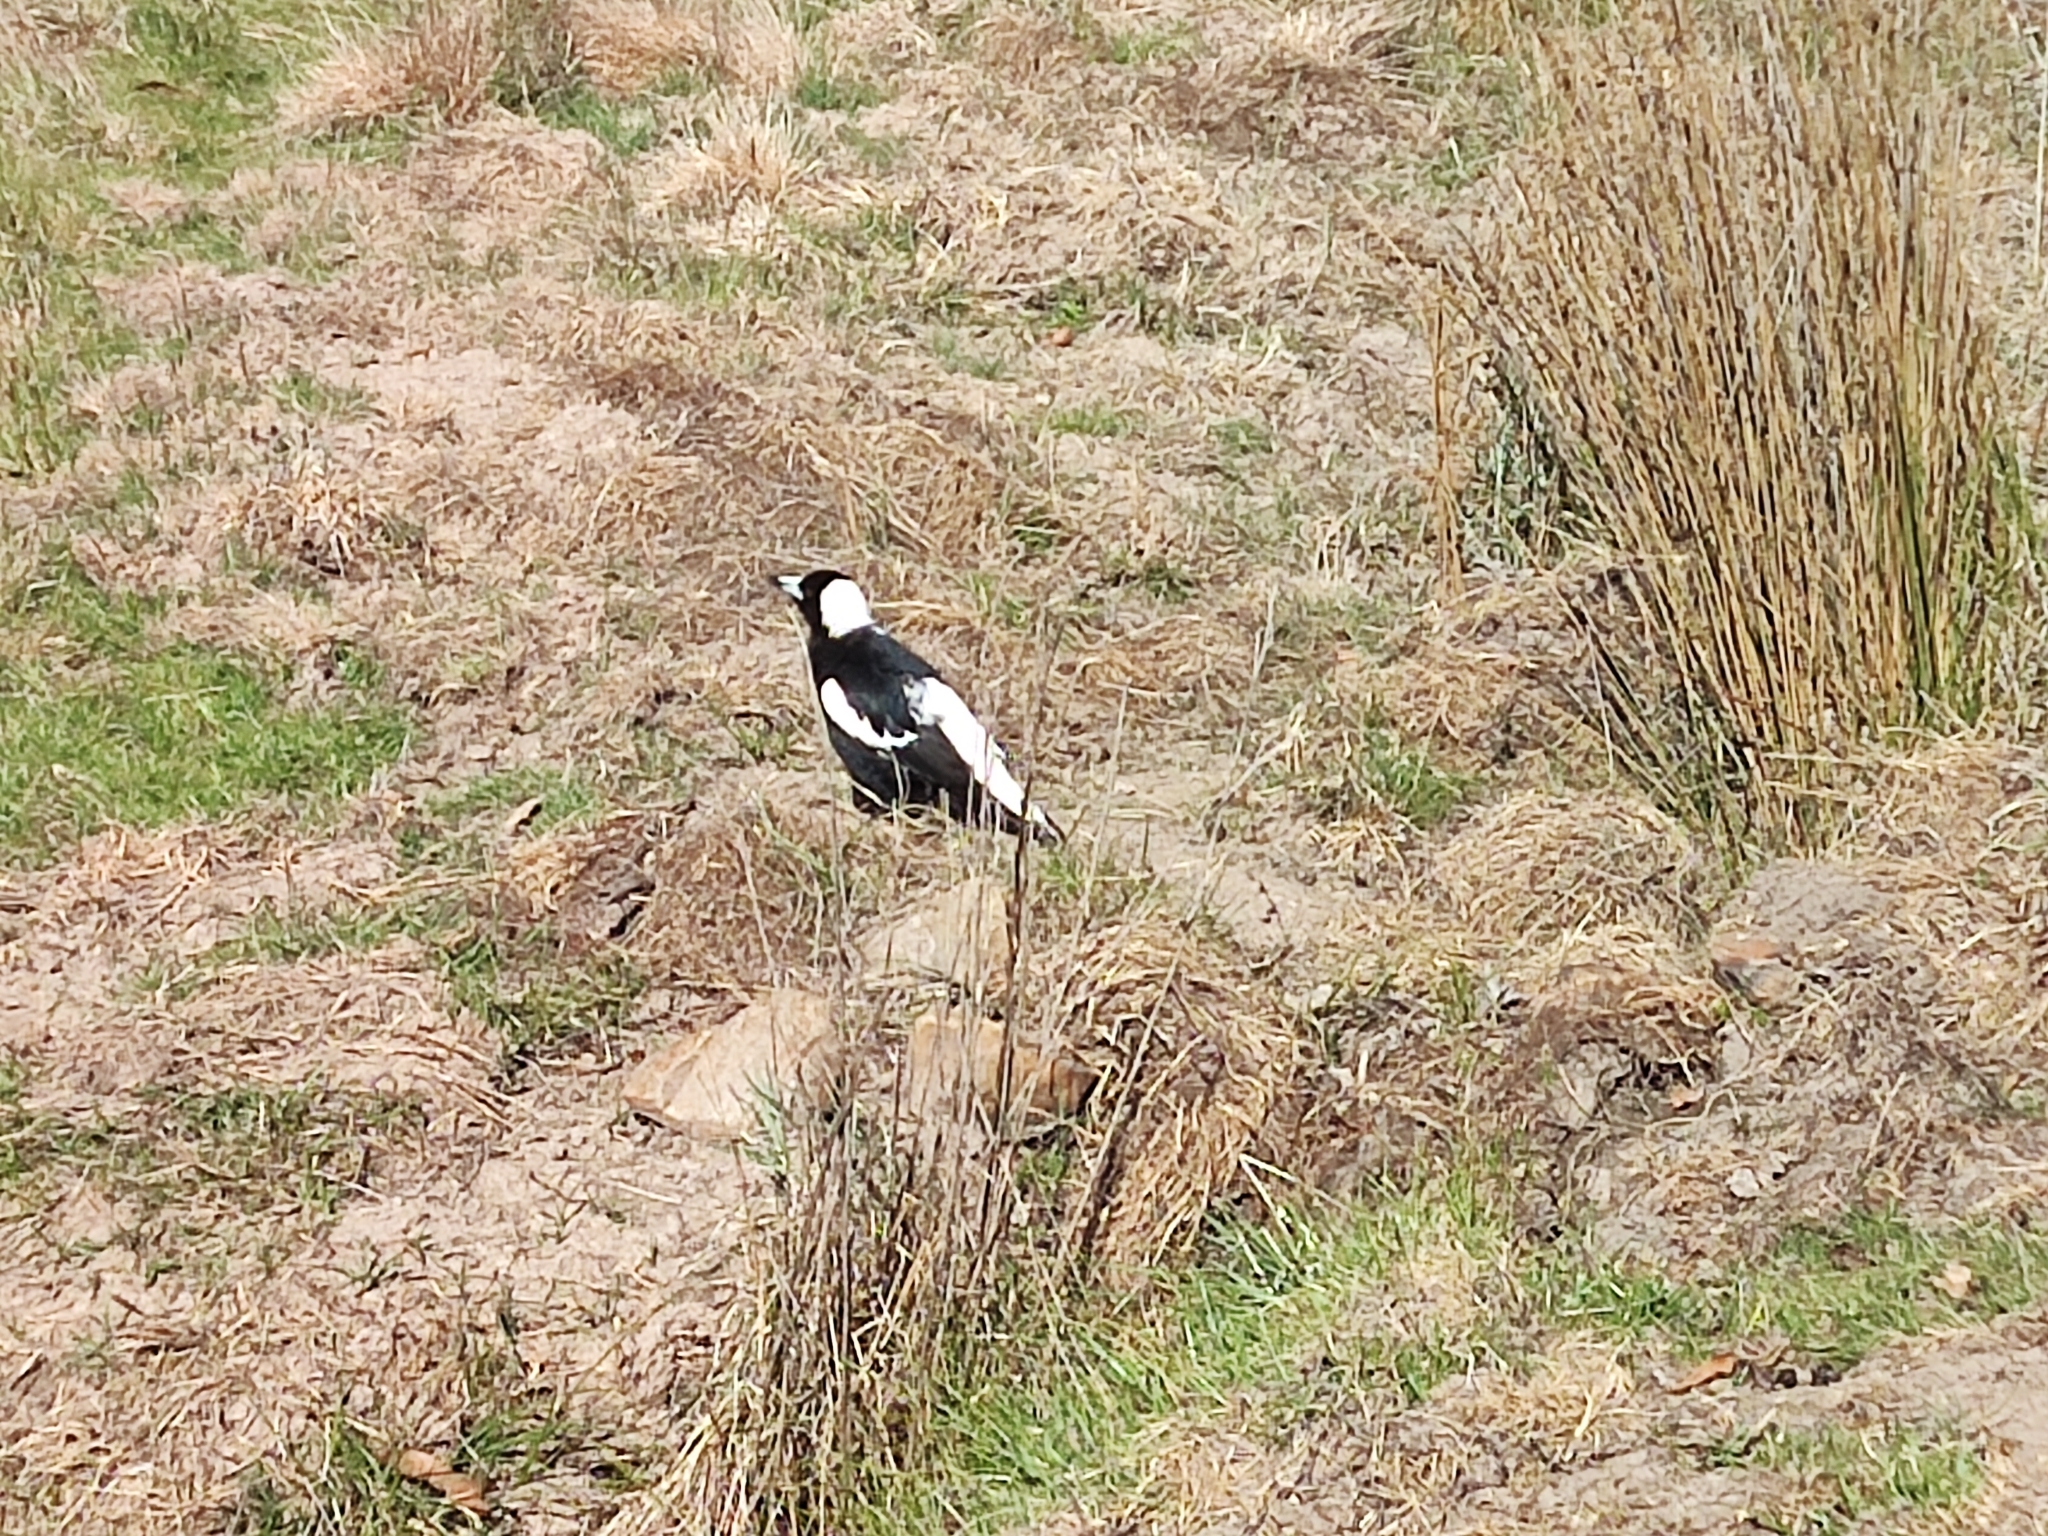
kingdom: Animalia
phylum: Chordata
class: Aves
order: Passeriformes
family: Cracticidae
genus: Gymnorhina
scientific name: Gymnorhina tibicen
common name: Australian magpie
